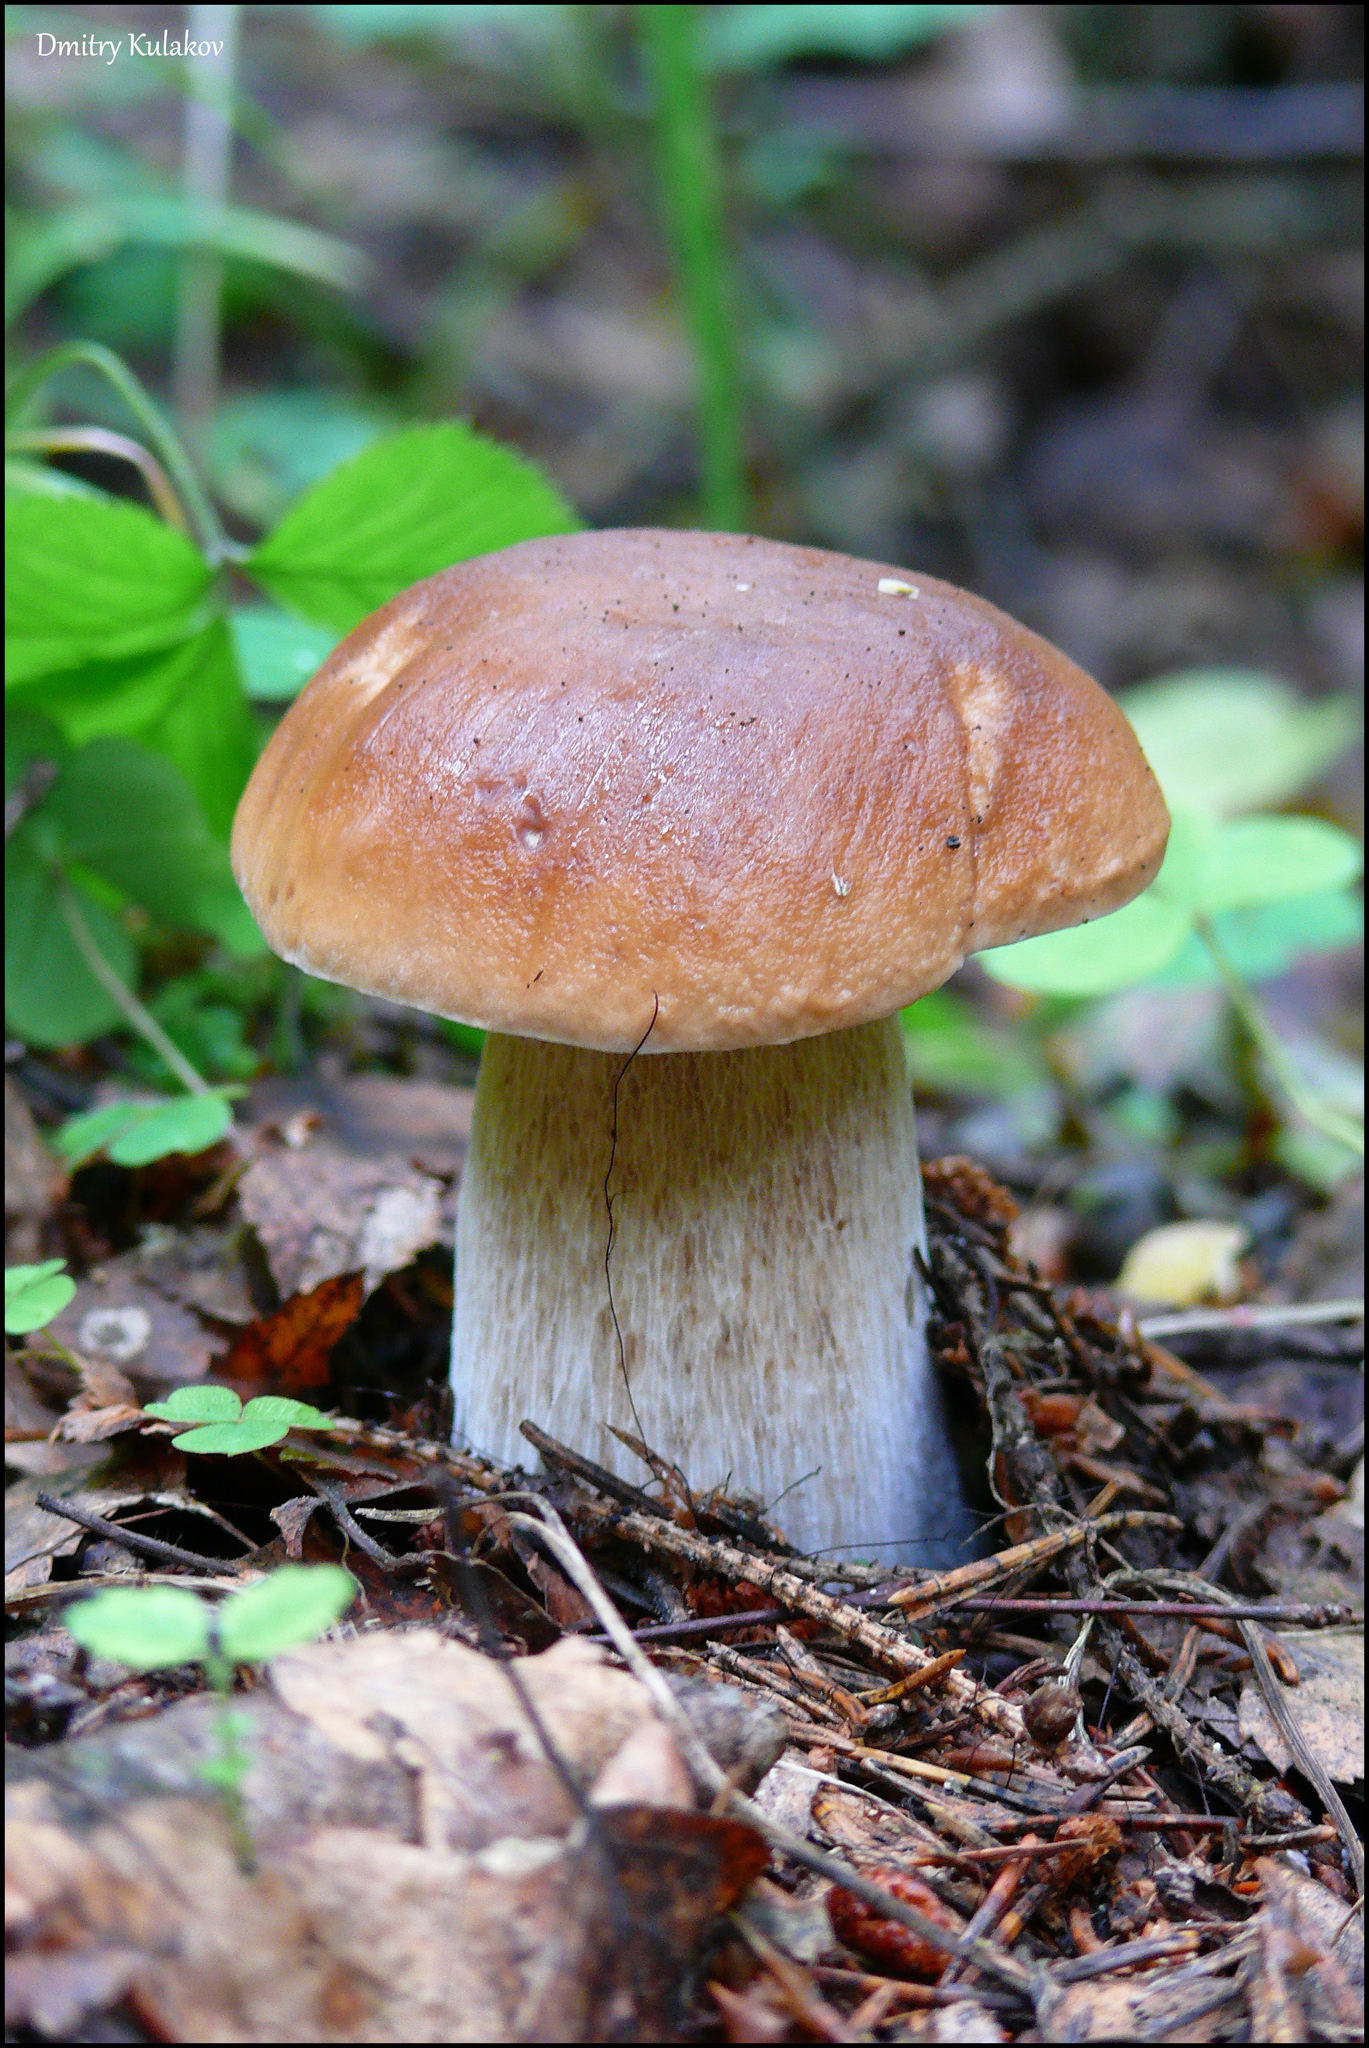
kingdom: Fungi
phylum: Basidiomycota
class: Agaricomycetes
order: Boletales
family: Boletaceae
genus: Boletus
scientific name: Boletus edulis
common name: Cep
